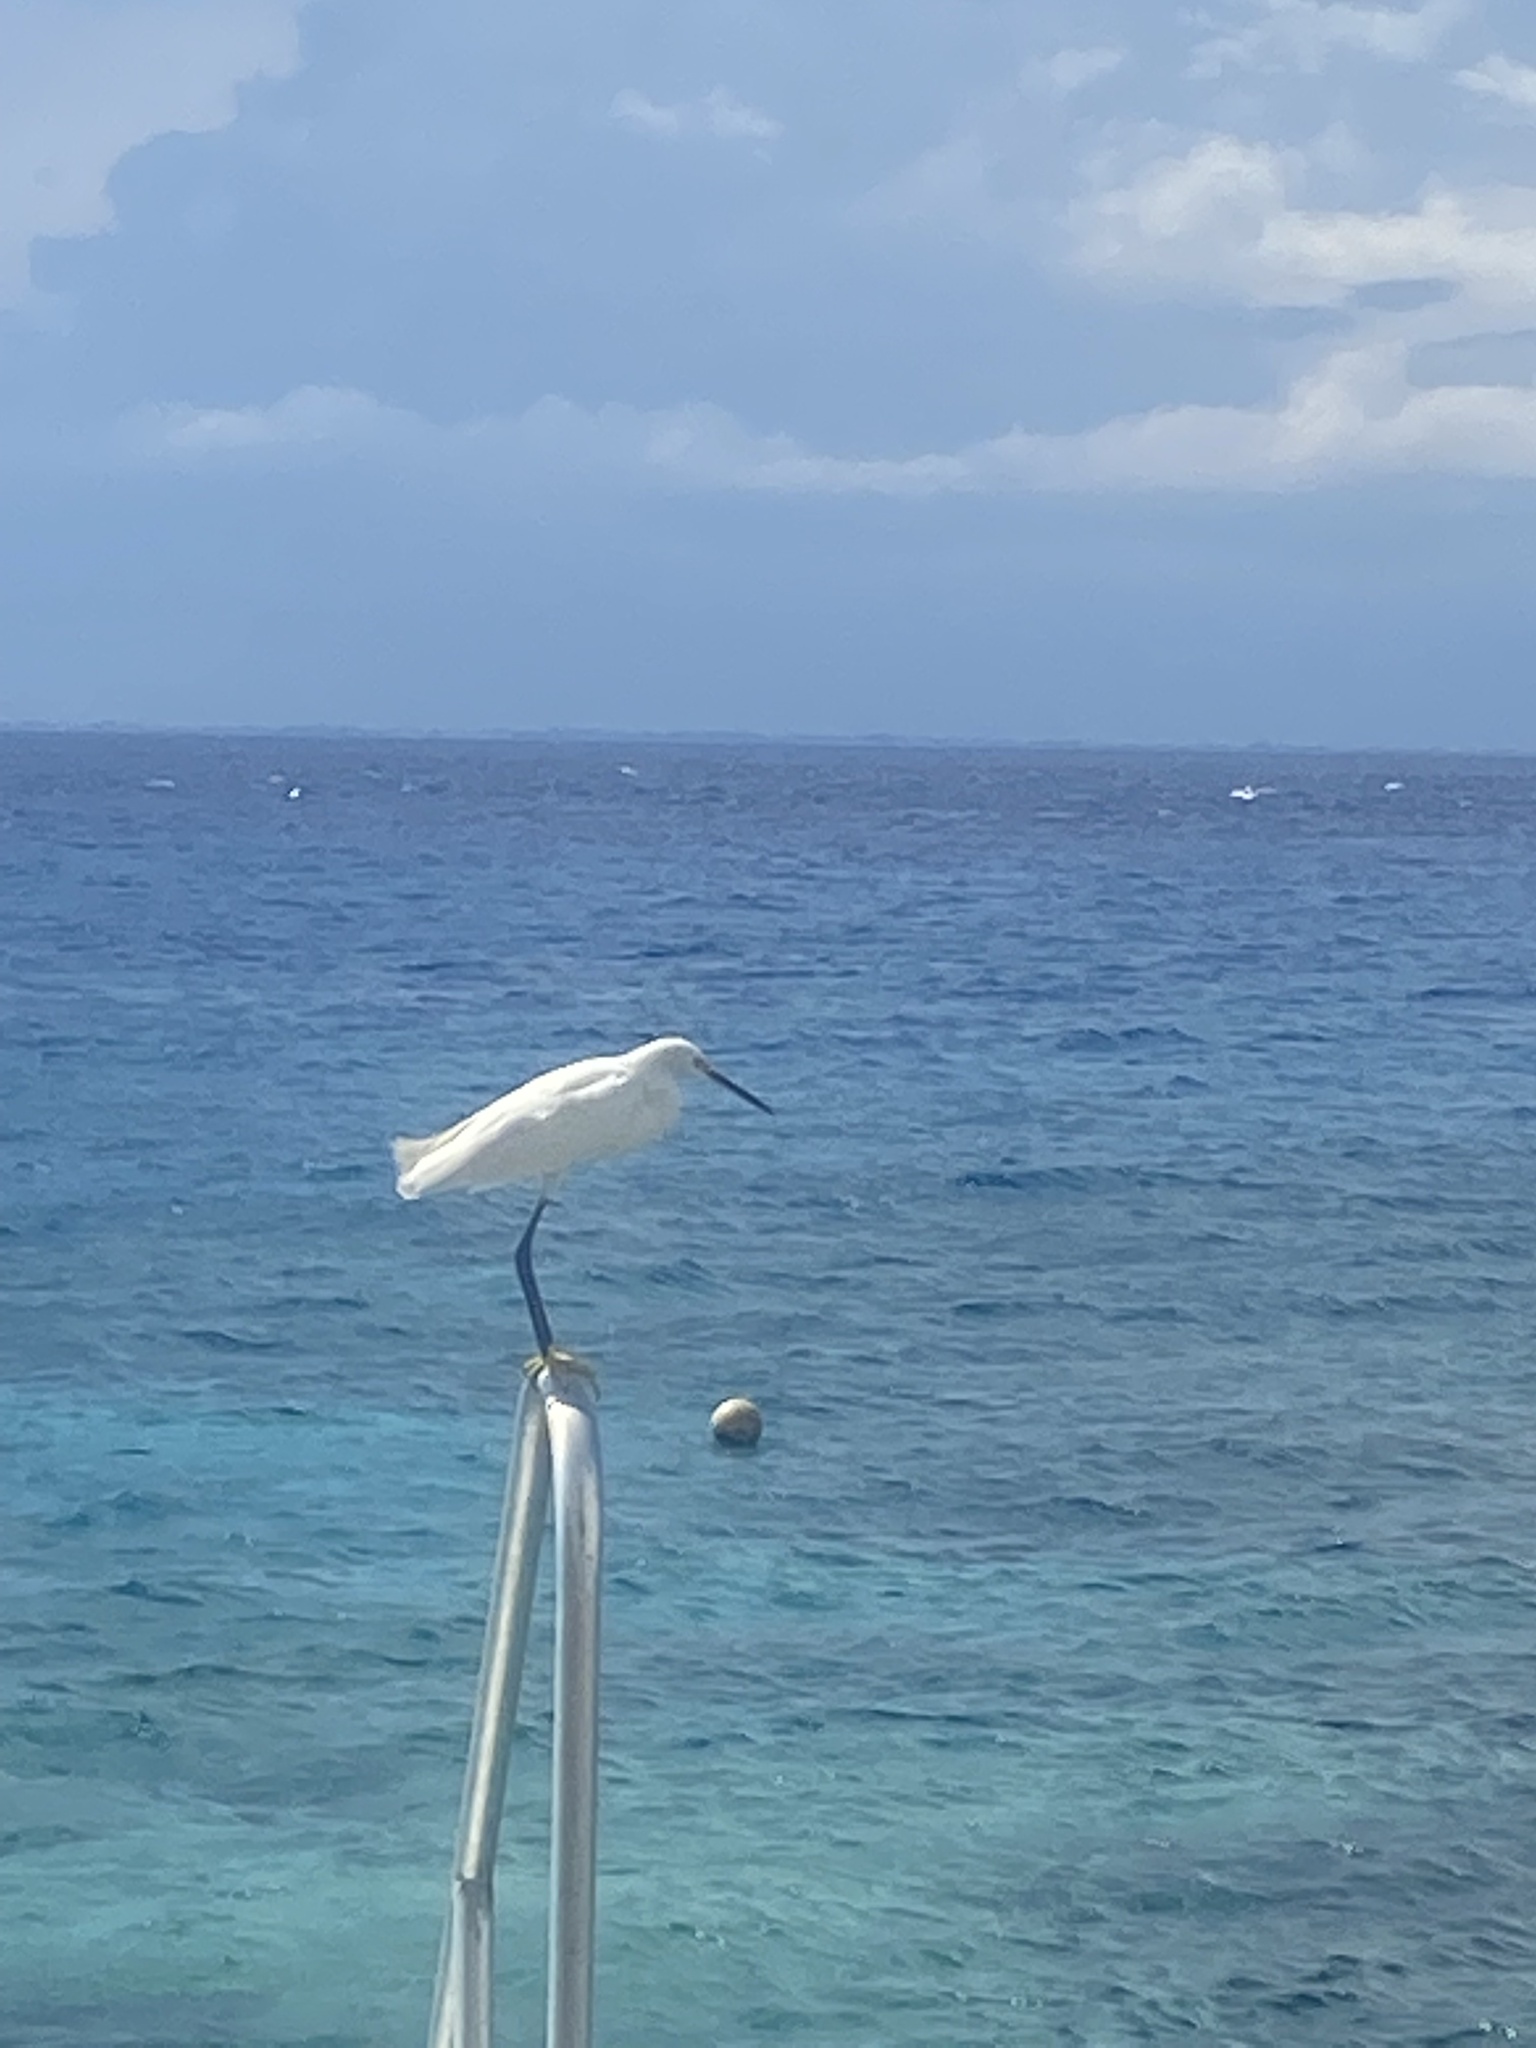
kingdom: Animalia
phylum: Chordata
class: Aves
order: Pelecaniformes
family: Ardeidae
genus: Egretta
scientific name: Egretta thula
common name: Snowy egret
